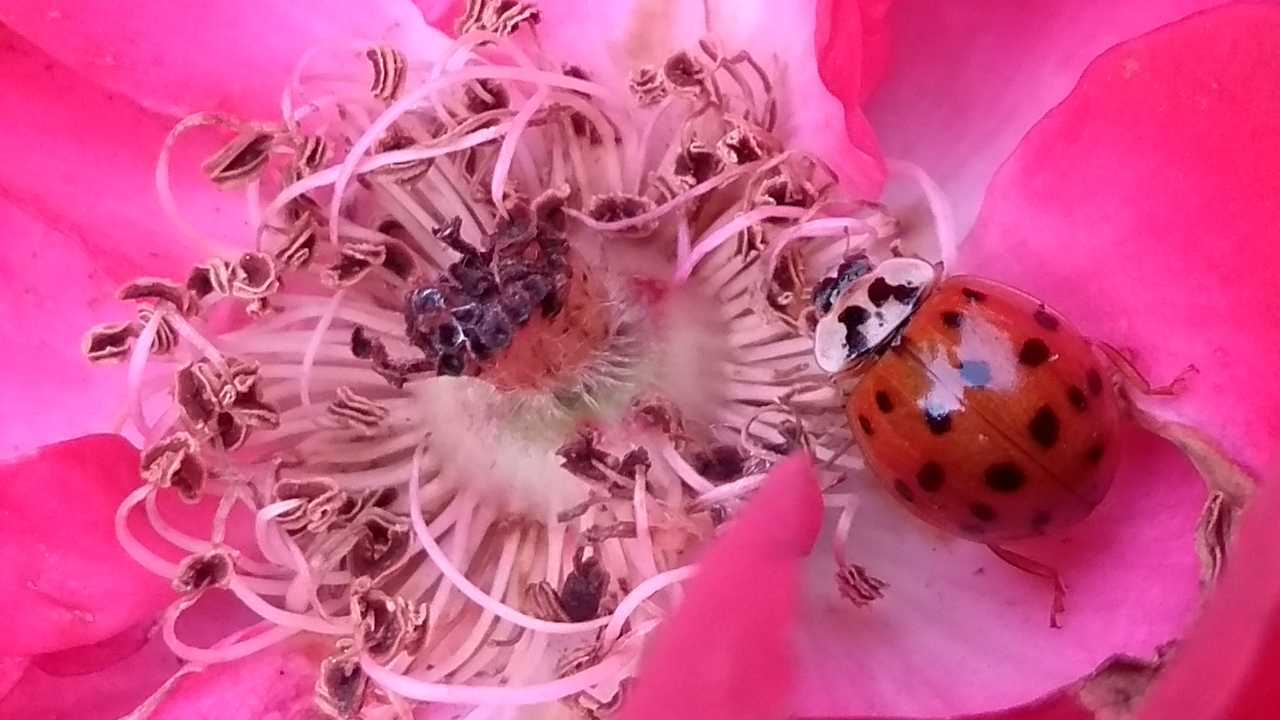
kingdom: Animalia
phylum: Arthropoda
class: Insecta
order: Coleoptera
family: Coccinellidae
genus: Harmonia
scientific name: Harmonia axyridis
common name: Harlequin ladybird
